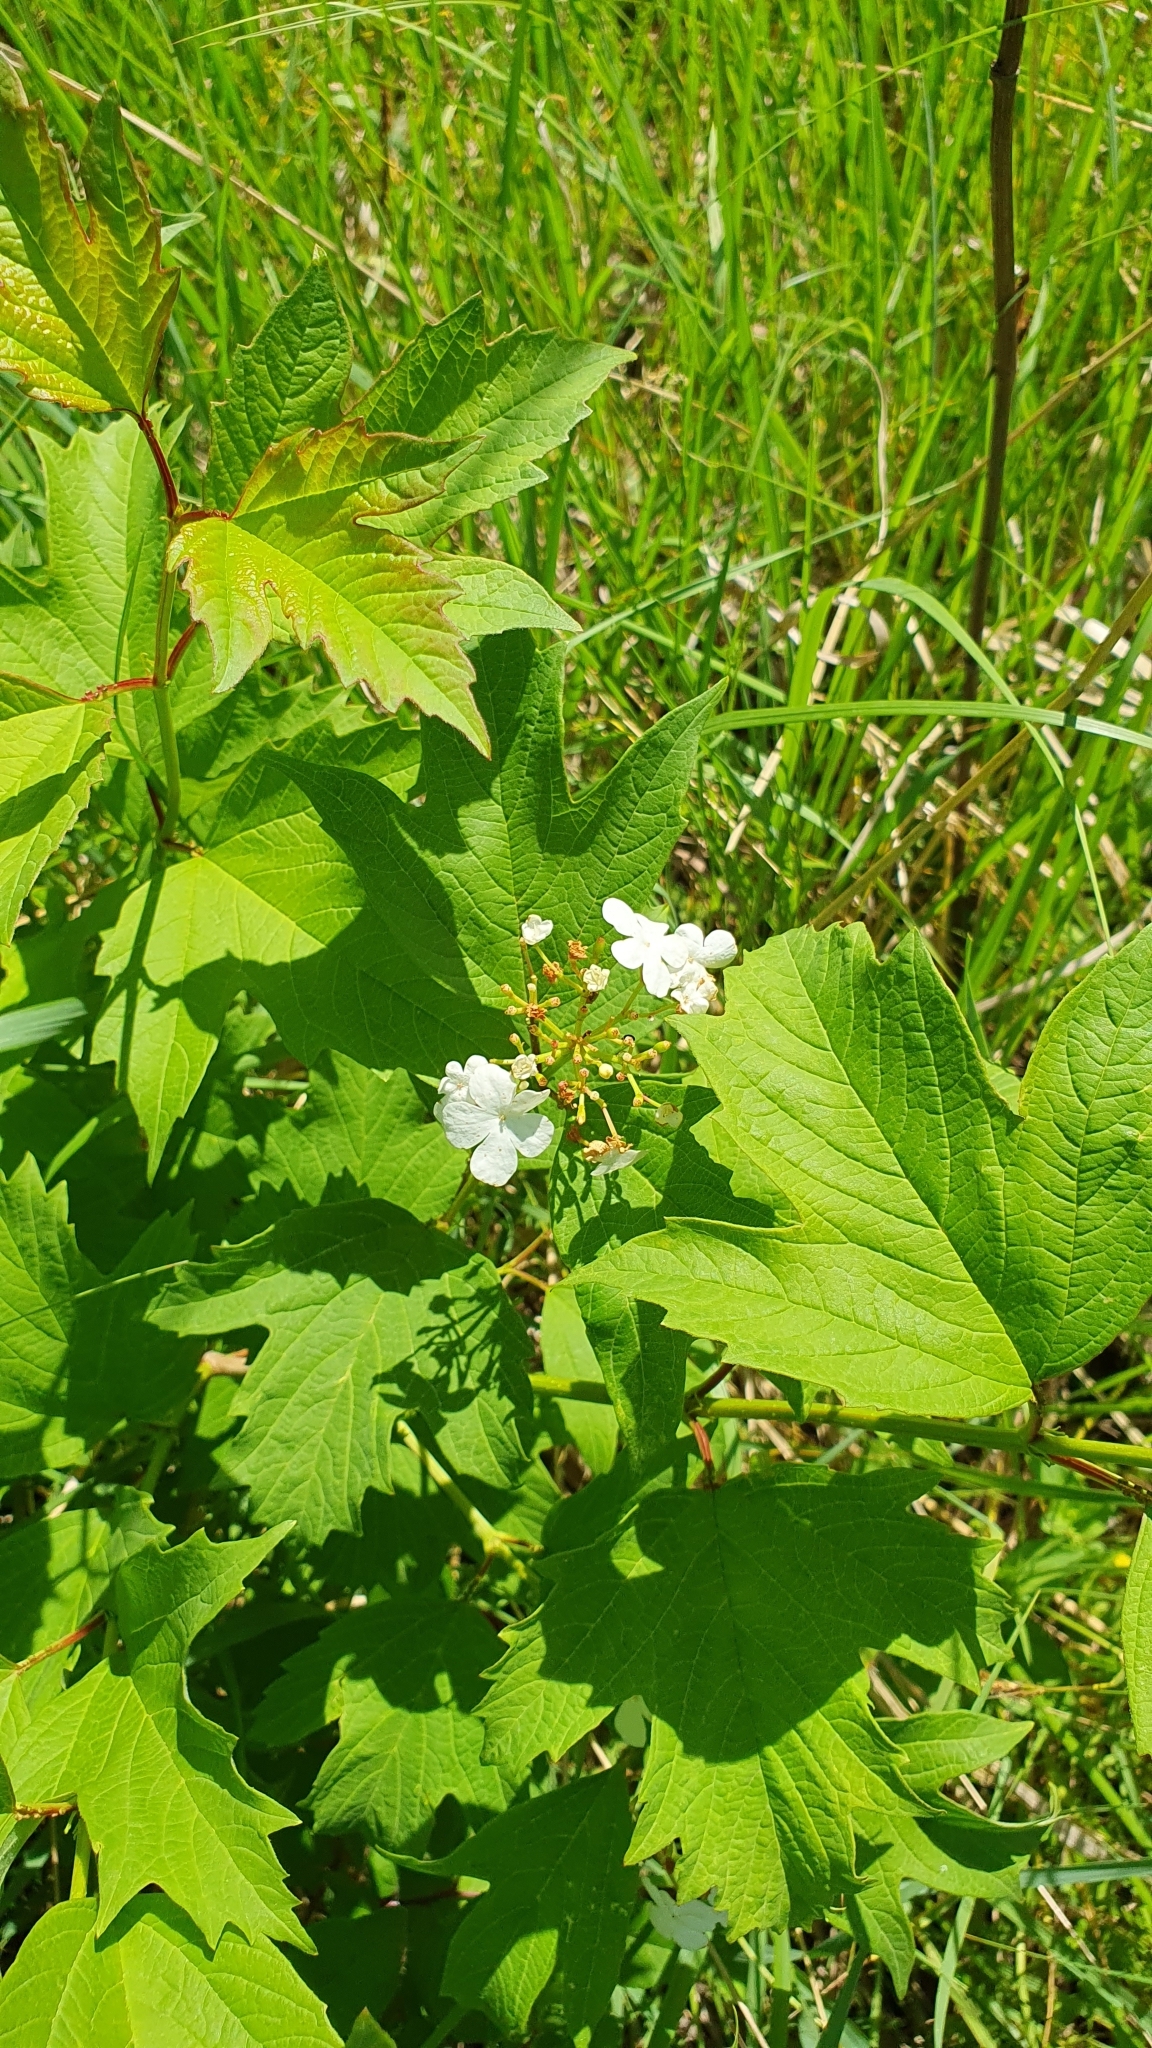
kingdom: Plantae
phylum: Tracheophyta
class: Magnoliopsida
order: Dipsacales
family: Viburnaceae
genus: Viburnum
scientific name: Viburnum opulus
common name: Guelder-rose
